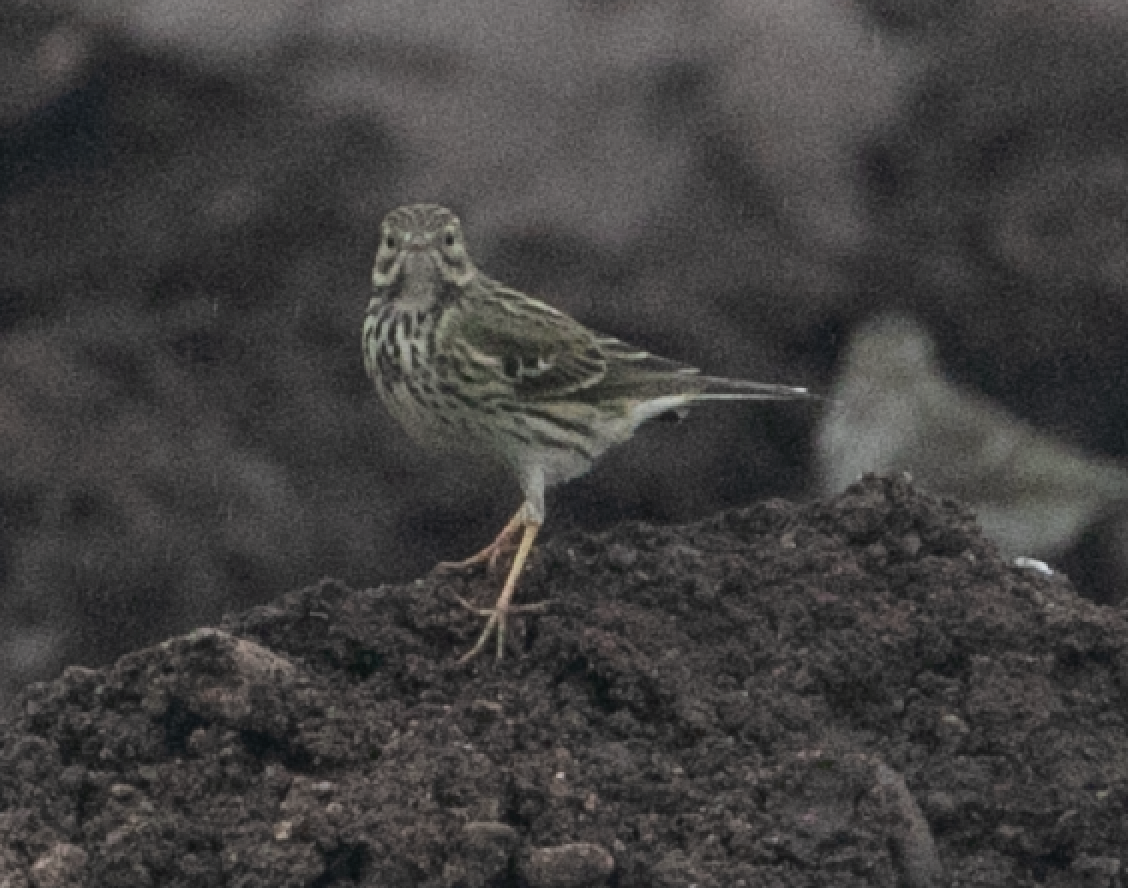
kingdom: Animalia
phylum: Chordata
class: Aves
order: Passeriformes
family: Motacillidae
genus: Anthus
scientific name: Anthus pratensis
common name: Meadow pipit
